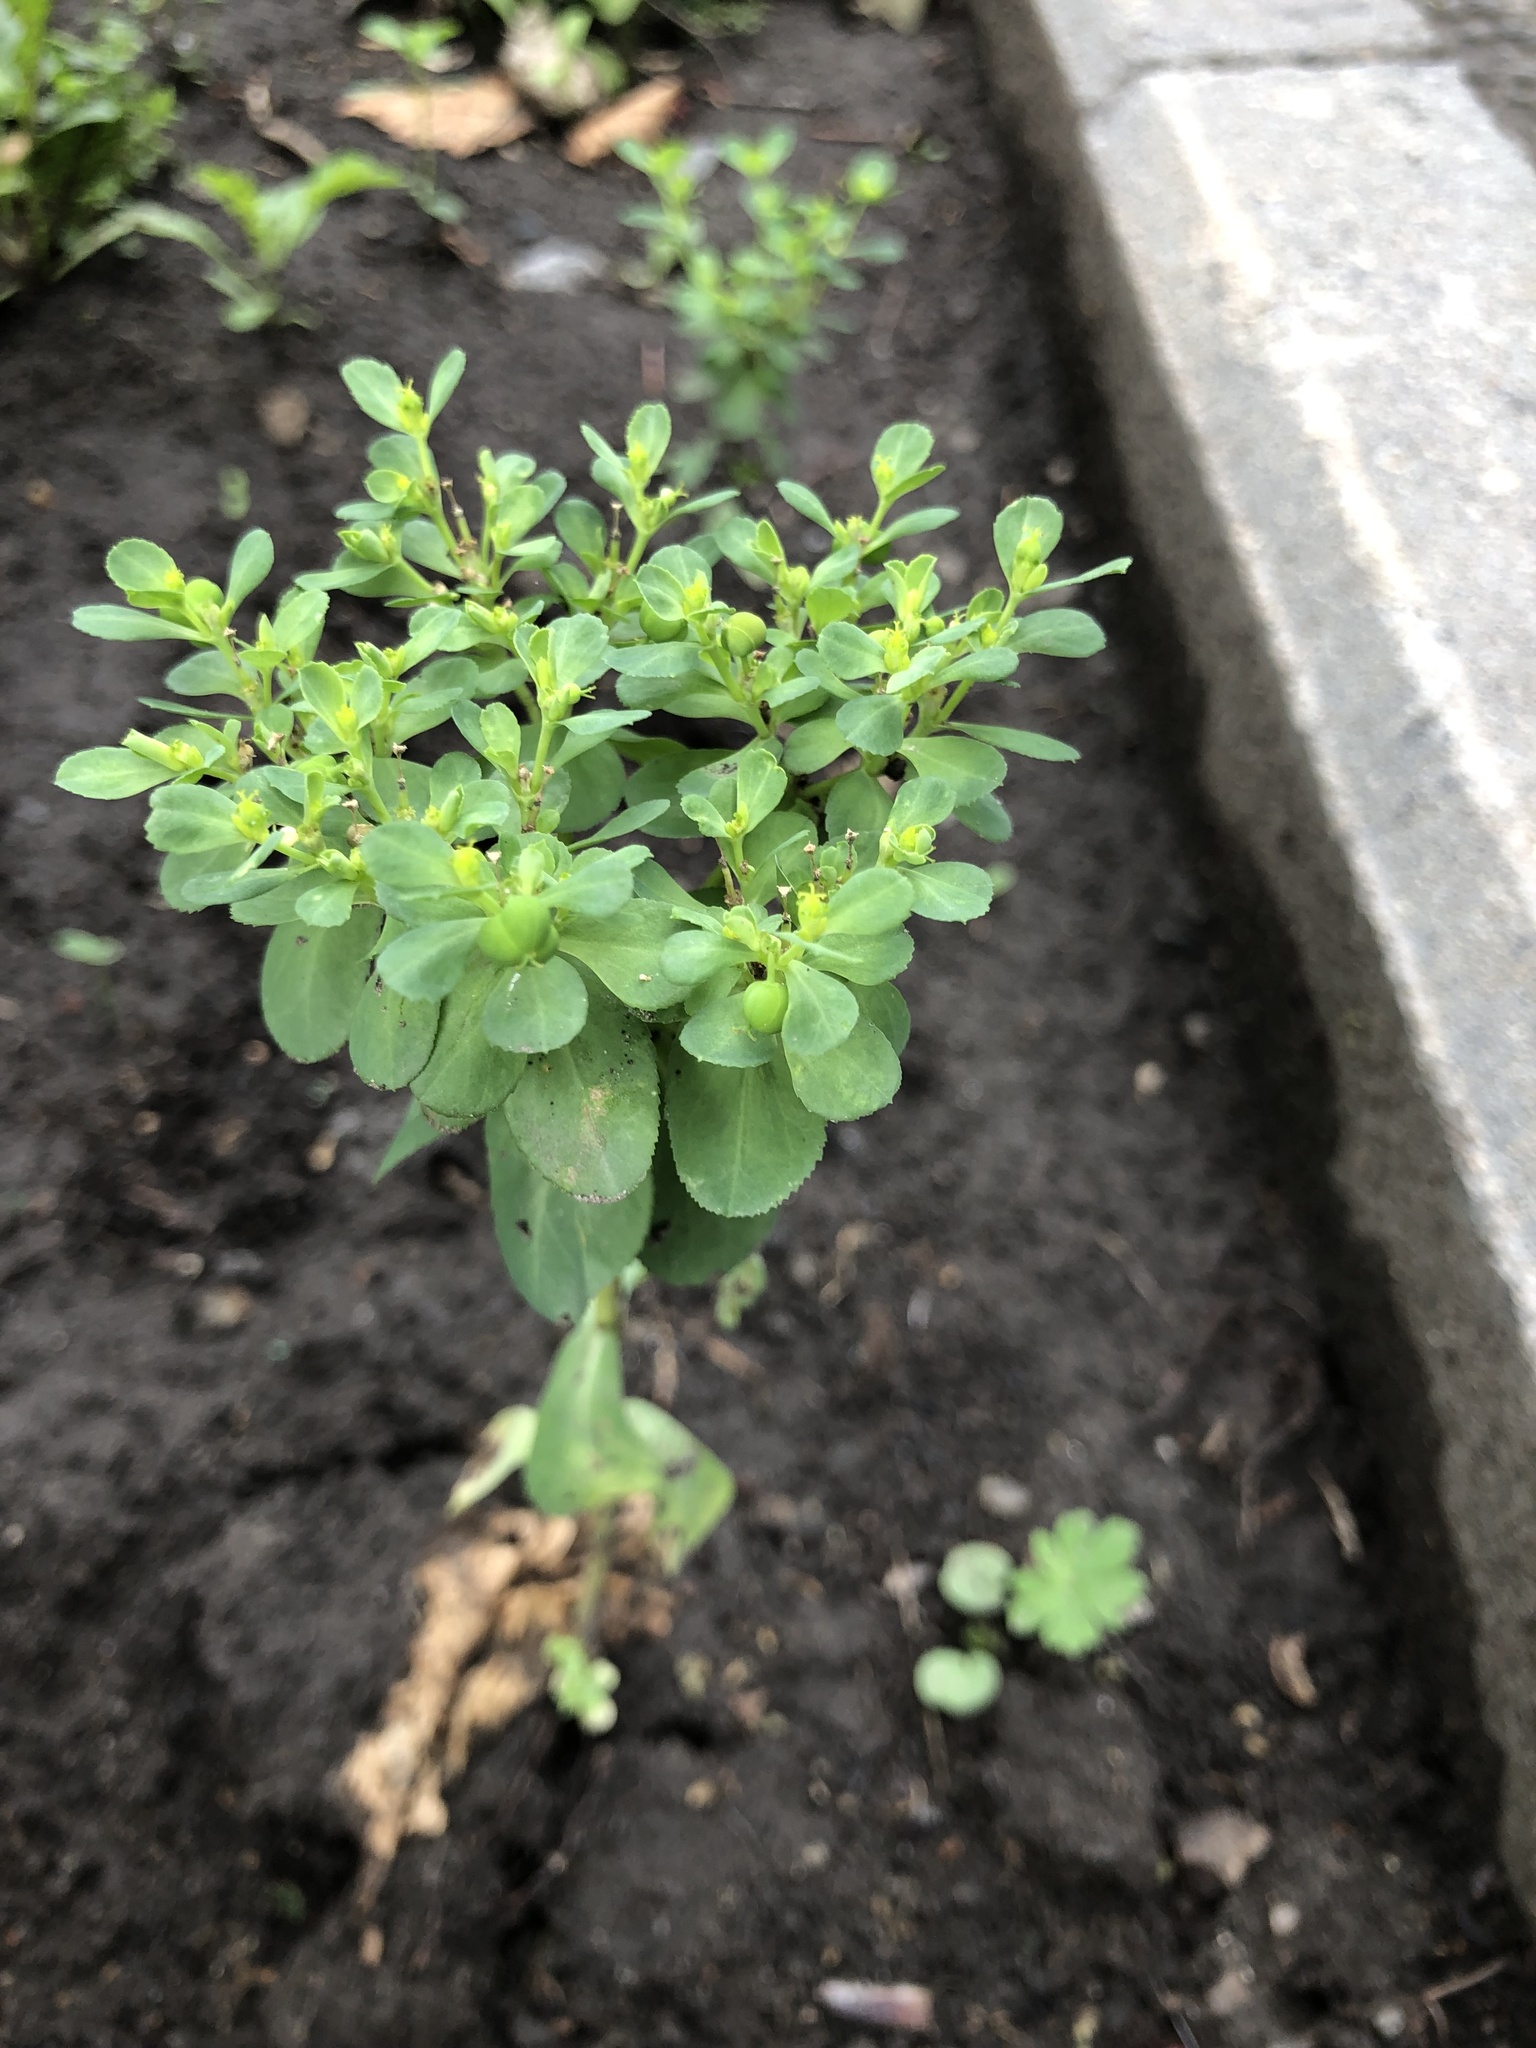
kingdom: Plantae
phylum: Tracheophyta
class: Magnoliopsida
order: Malpighiales
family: Euphorbiaceae
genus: Euphorbia
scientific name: Euphorbia helioscopia
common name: Sun spurge
